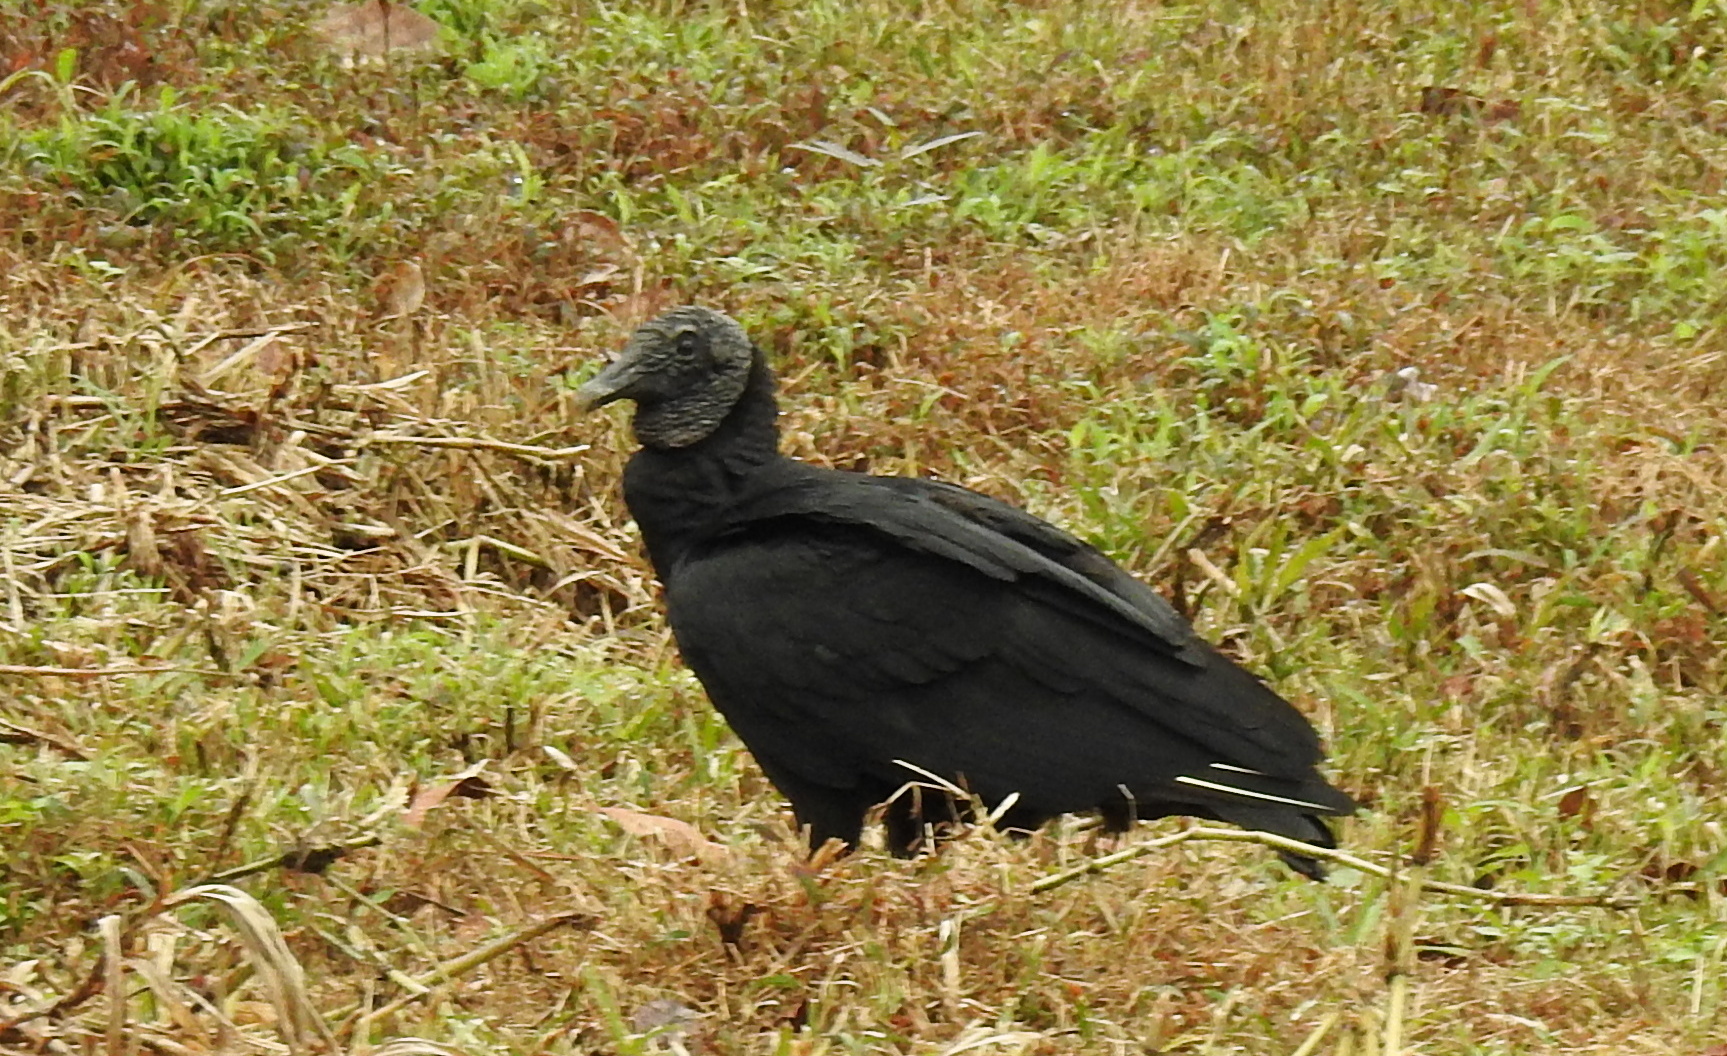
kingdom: Animalia
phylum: Chordata
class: Aves
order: Accipitriformes
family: Cathartidae
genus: Coragyps
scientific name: Coragyps atratus
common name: Black vulture
